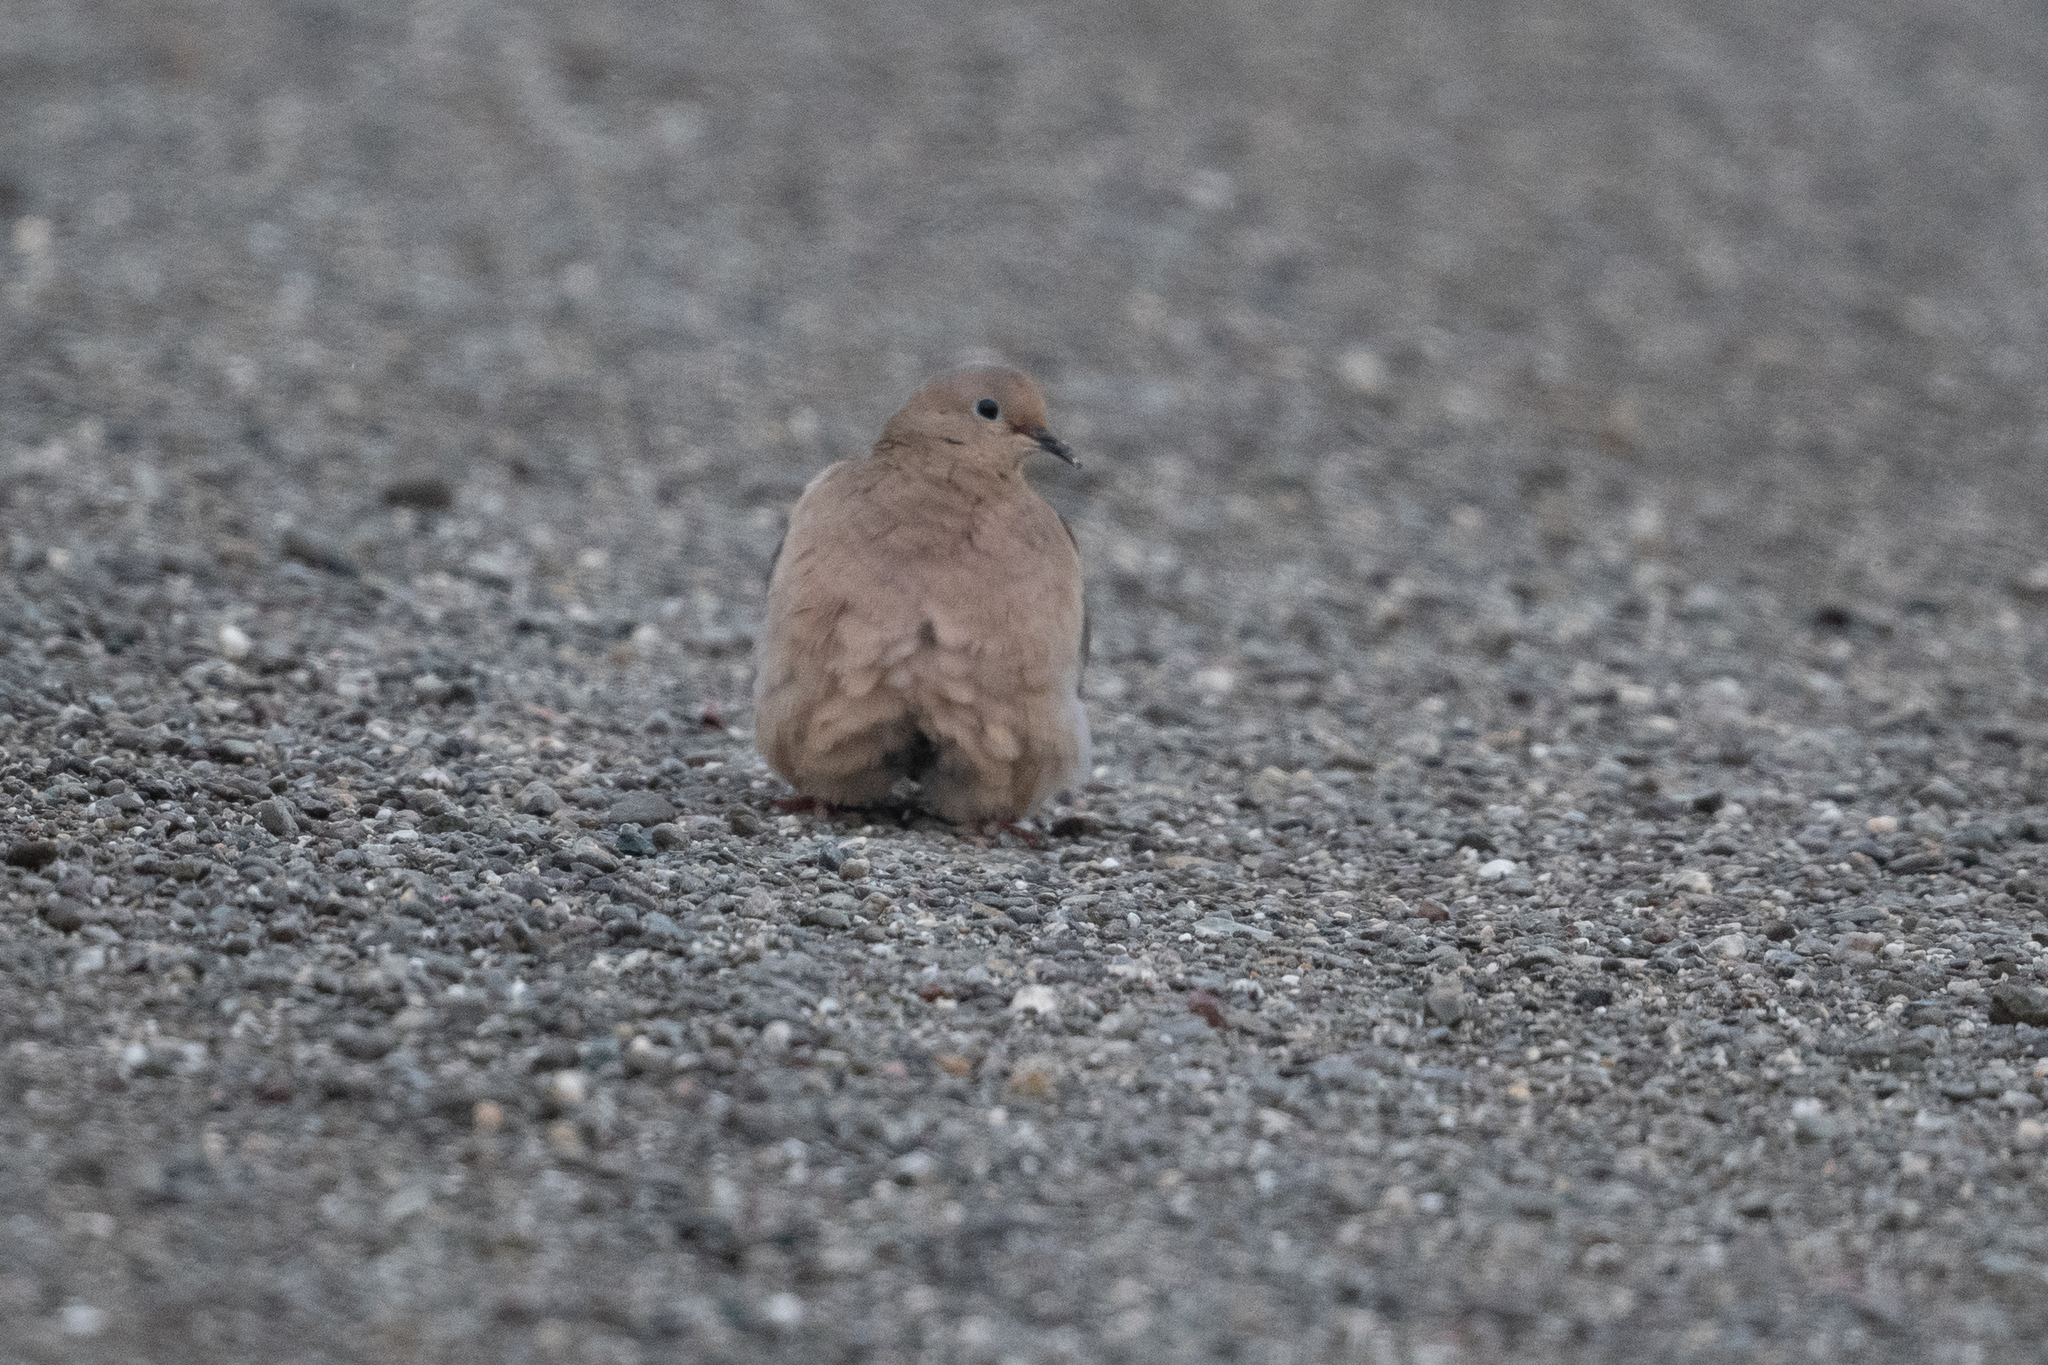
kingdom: Animalia
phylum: Chordata
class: Aves
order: Columbiformes
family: Columbidae
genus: Zenaida
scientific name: Zenaida macroura
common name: Mourning dove
